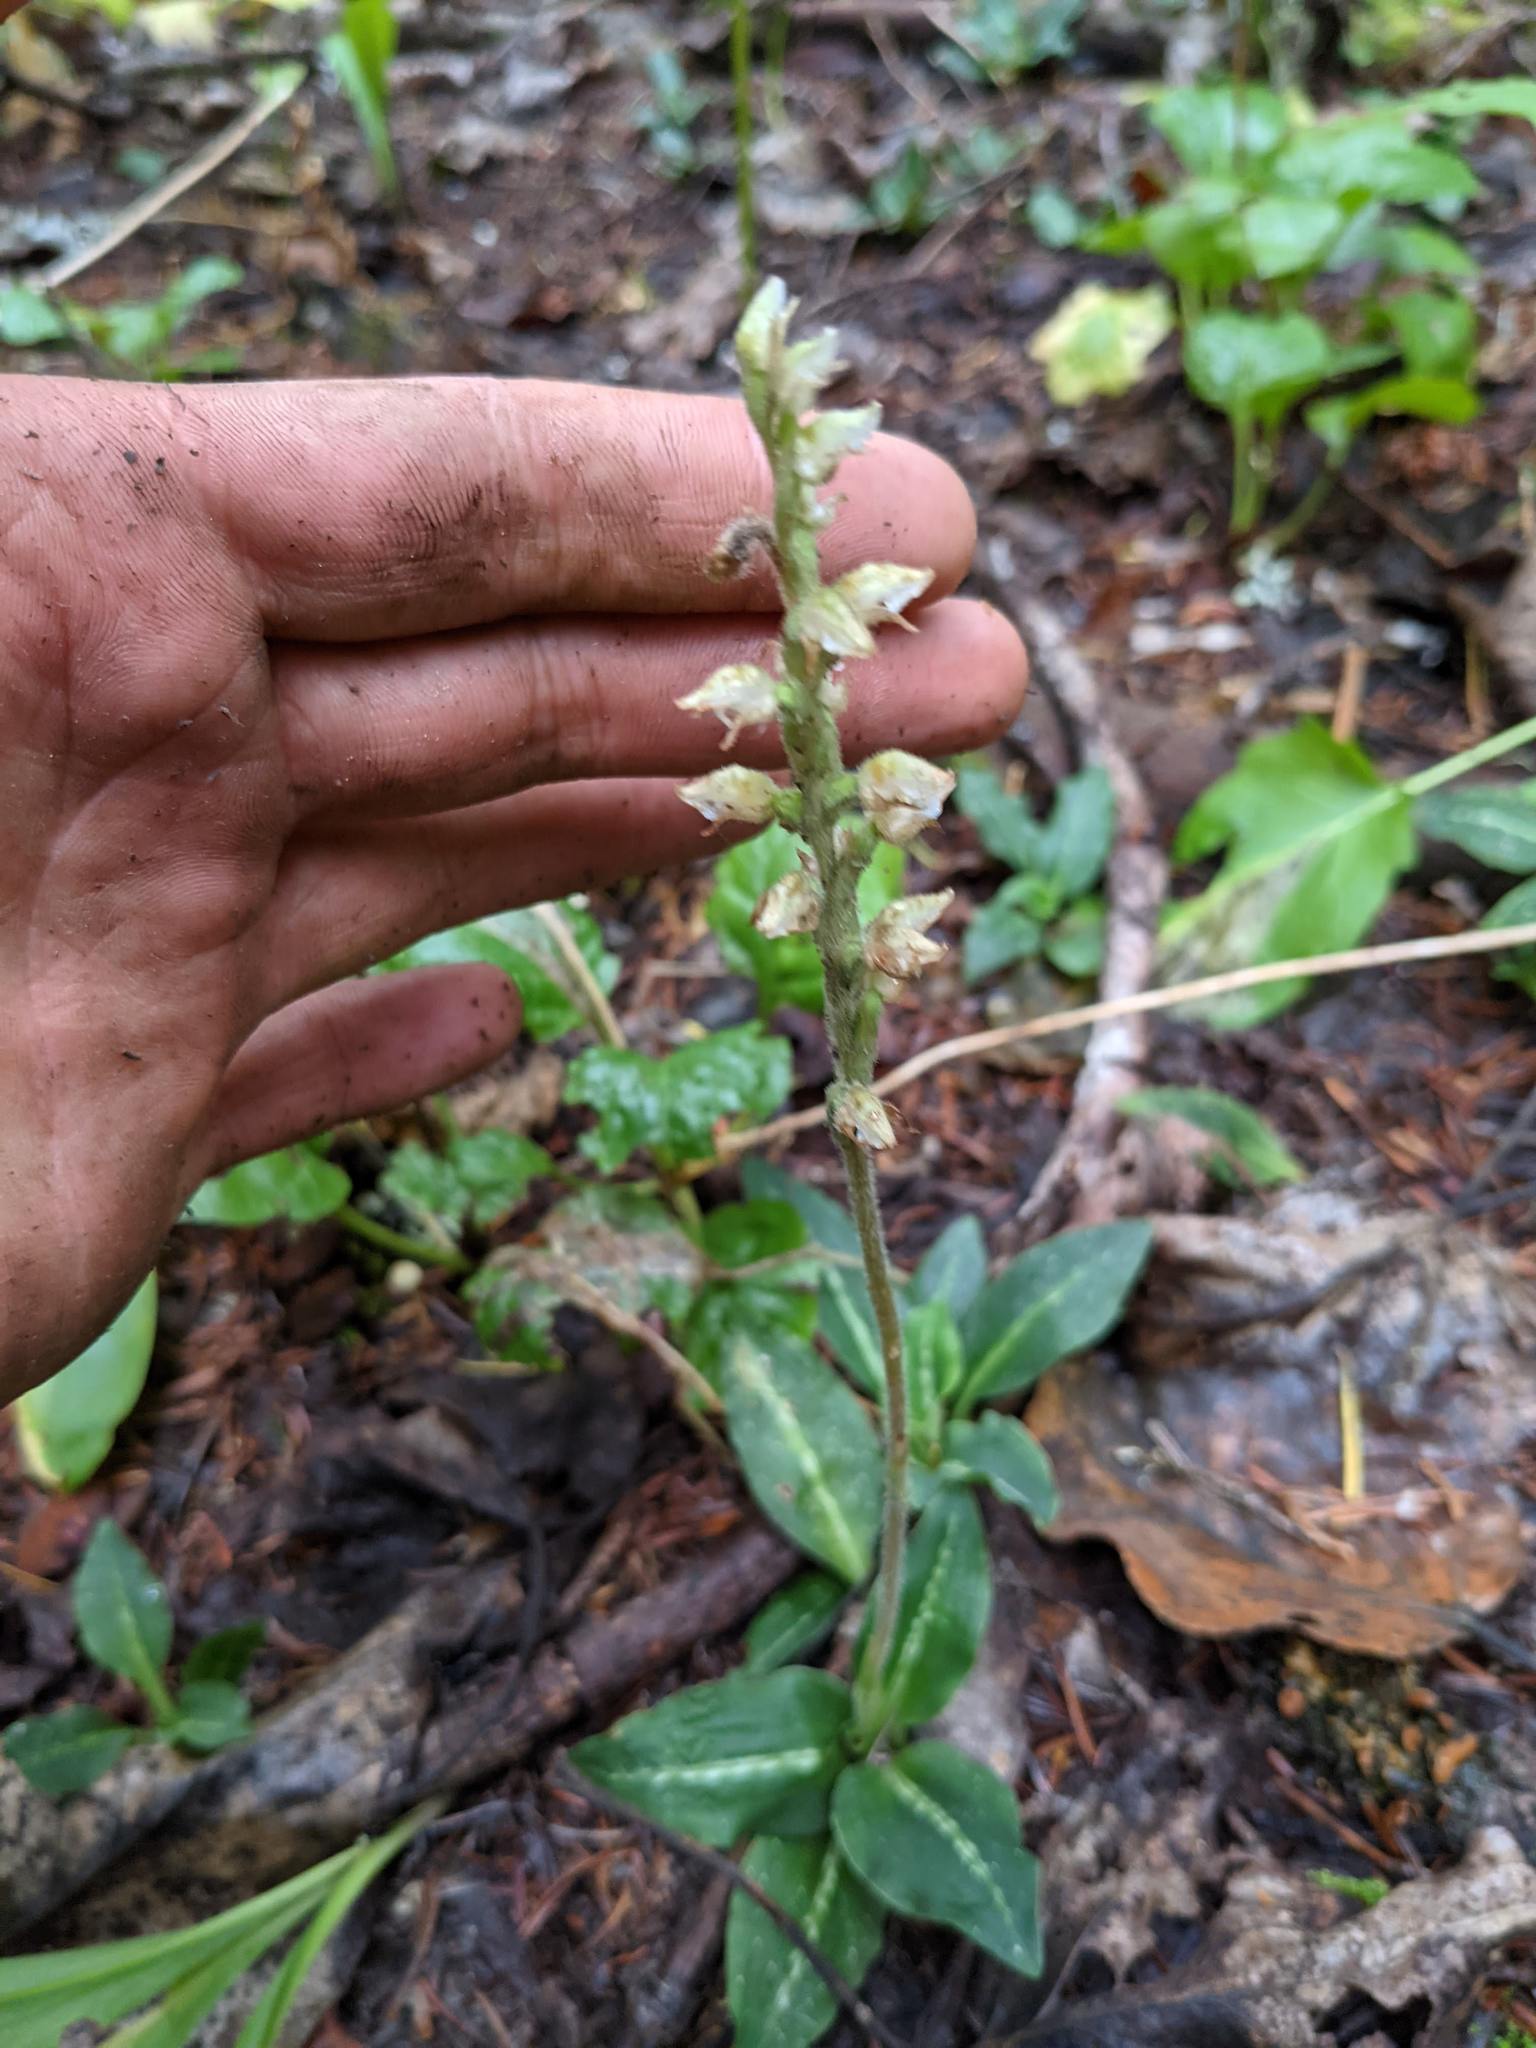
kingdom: Plantae
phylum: Tracheophyta
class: Liliopsida
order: Asparagales
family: Orchidaceae
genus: Goodyera
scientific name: Goodyera oblongifolia
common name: Giant rattlesnake-plantain
